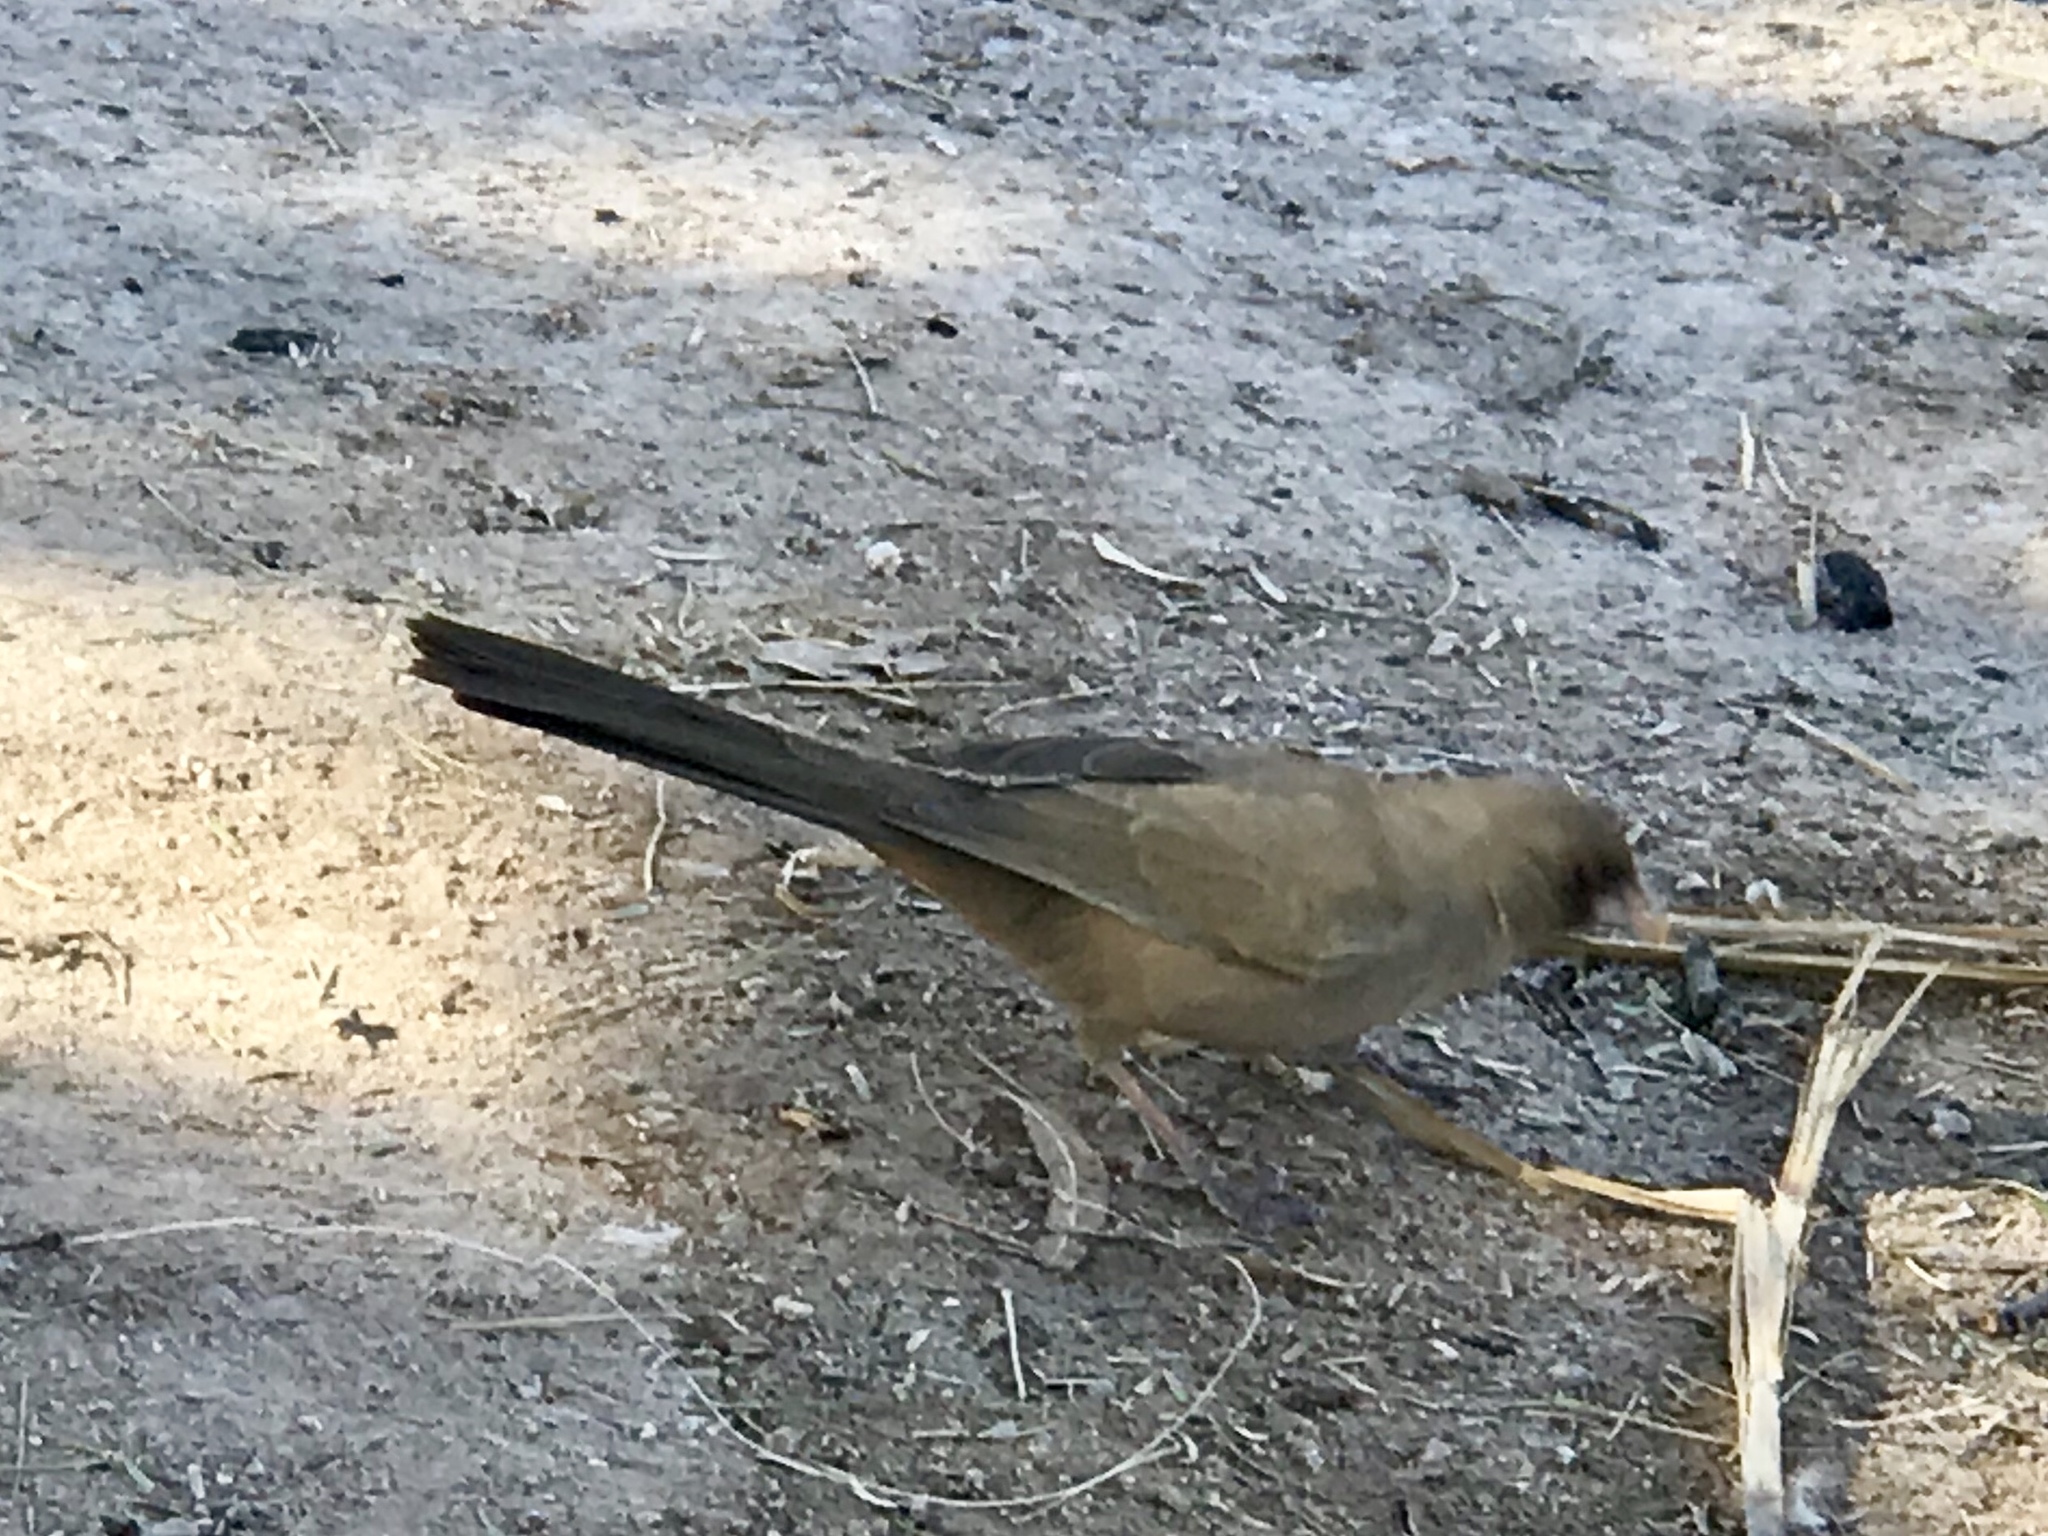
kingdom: Animalia
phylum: Chordata
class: Aves
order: Passeriformes
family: Passerellidae
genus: Melozone
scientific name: Melozone aberti
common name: Abert's towhee
